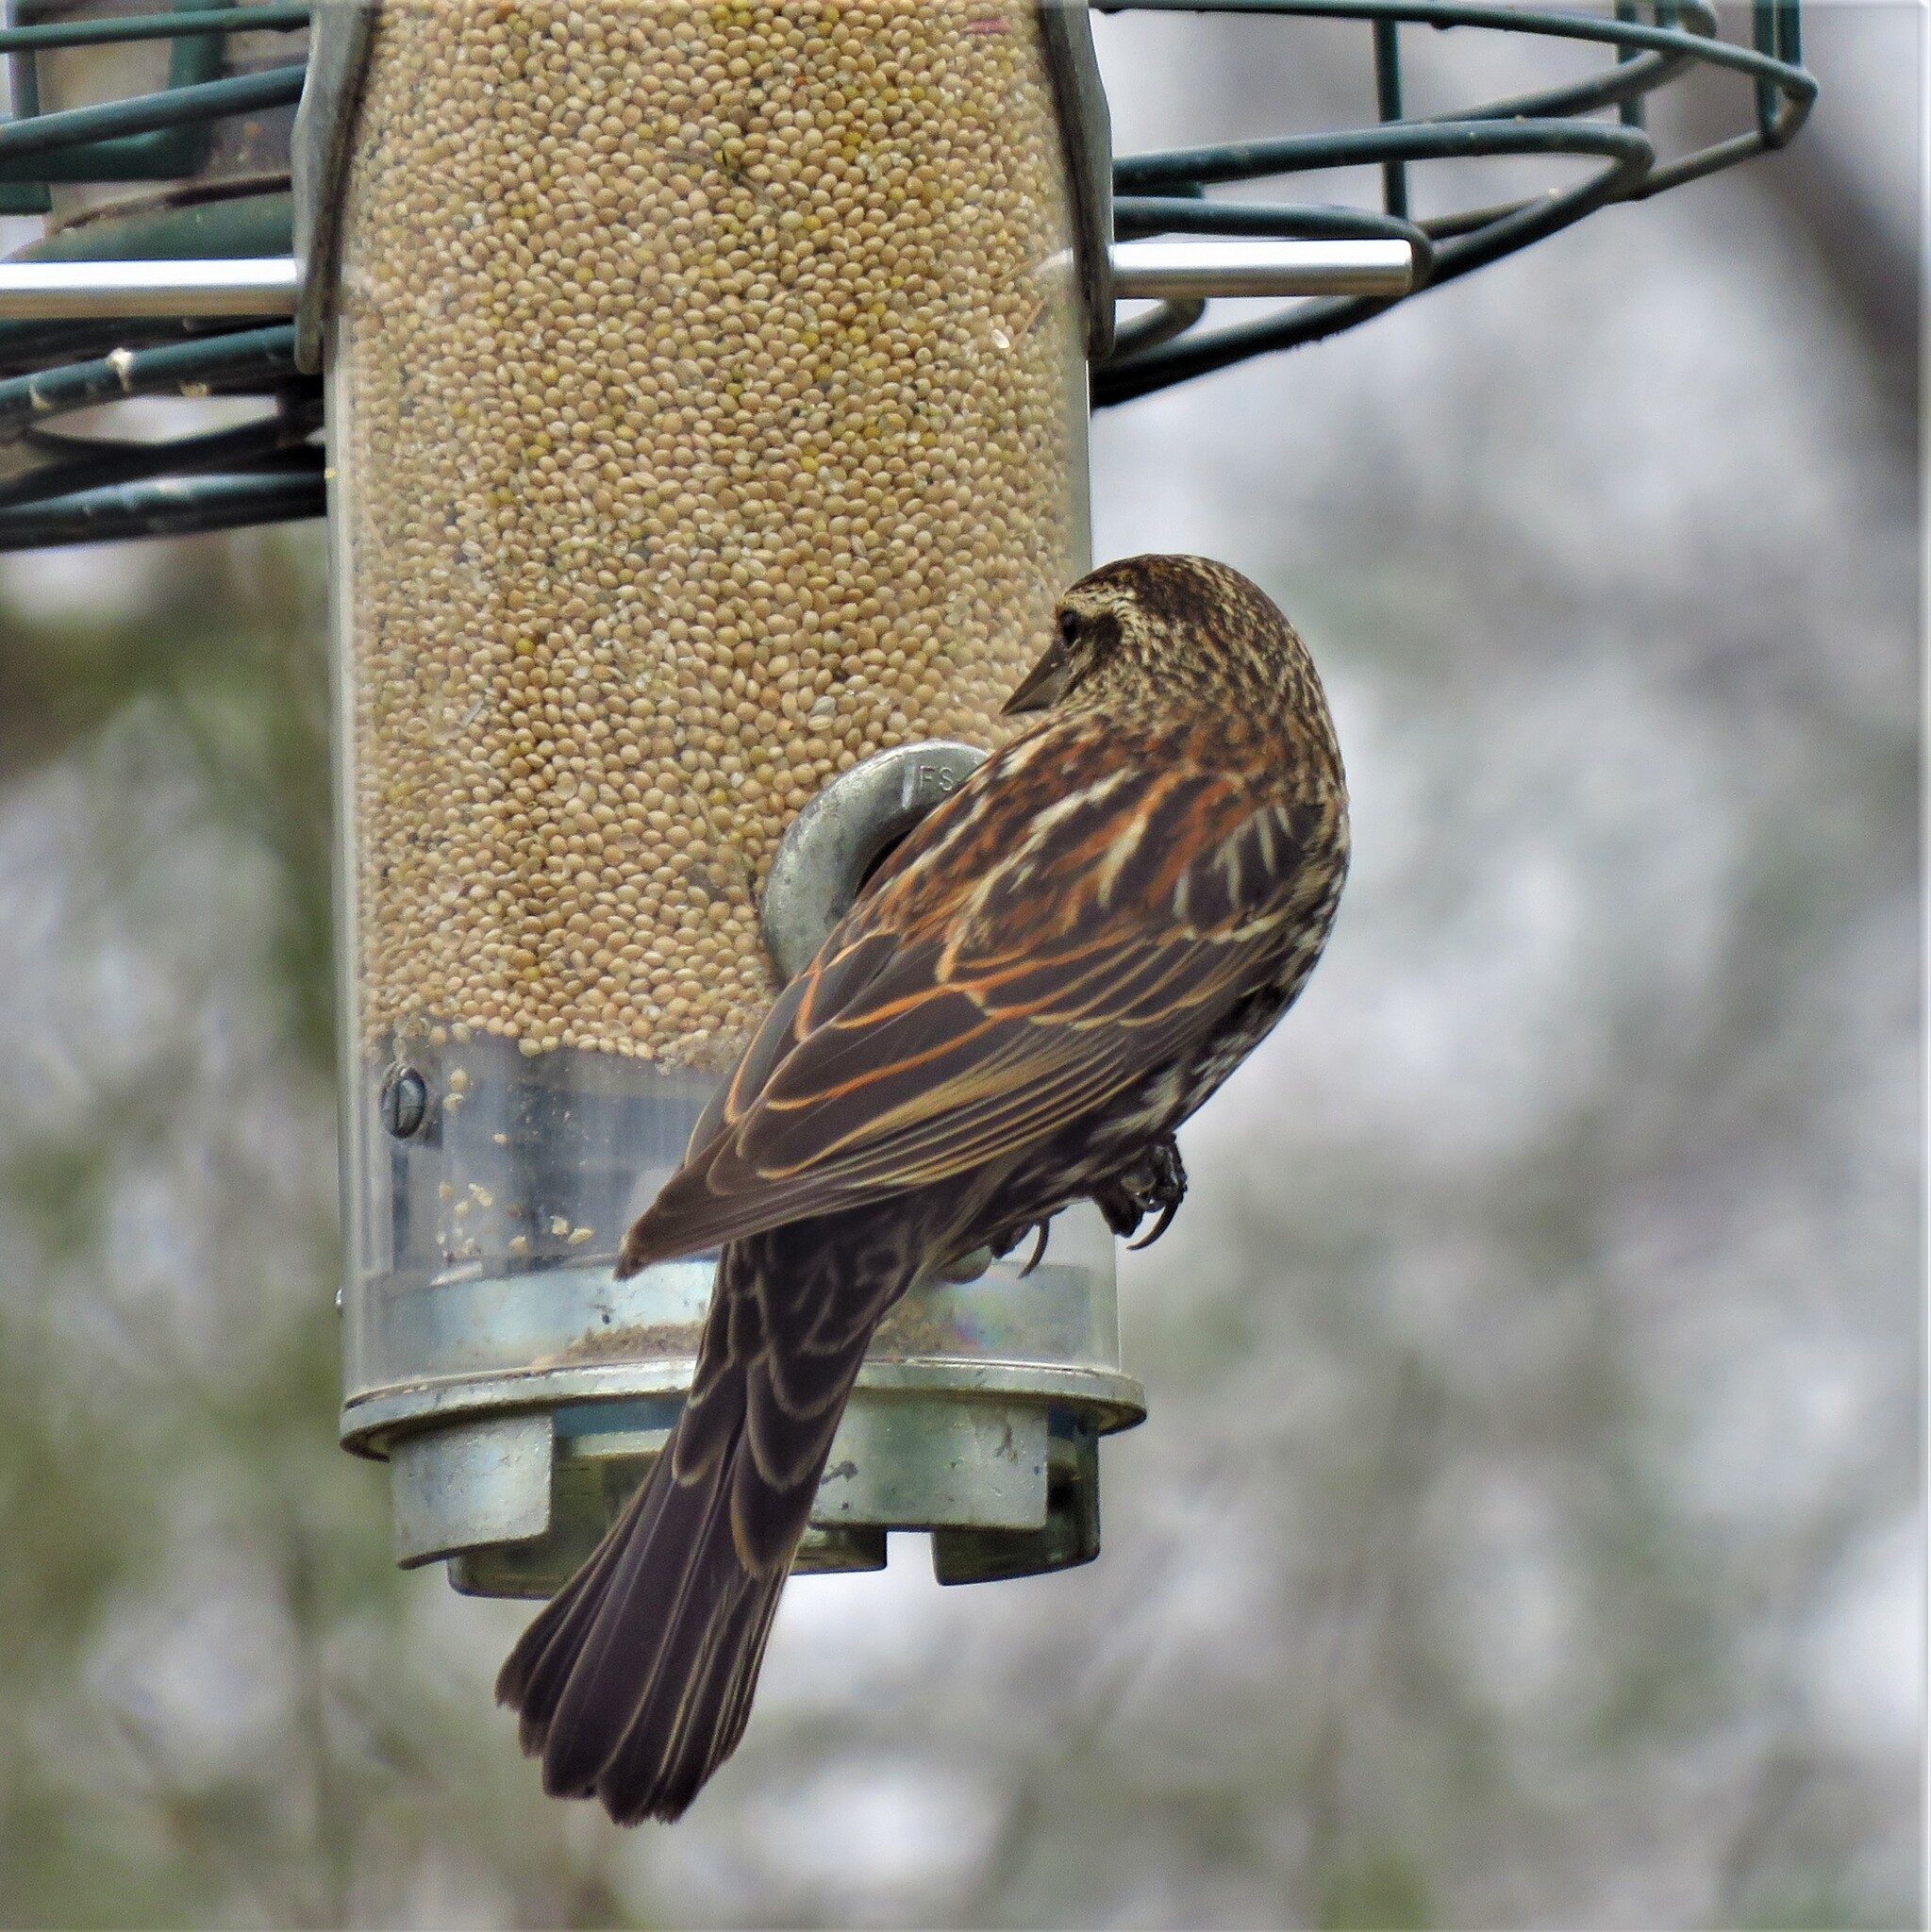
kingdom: Animalia
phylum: Chordata
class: Aves
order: Passeriformes
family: Icteridae
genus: Agelaius
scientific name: Agelaius phoeniceus
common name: Red-winged blackbird
